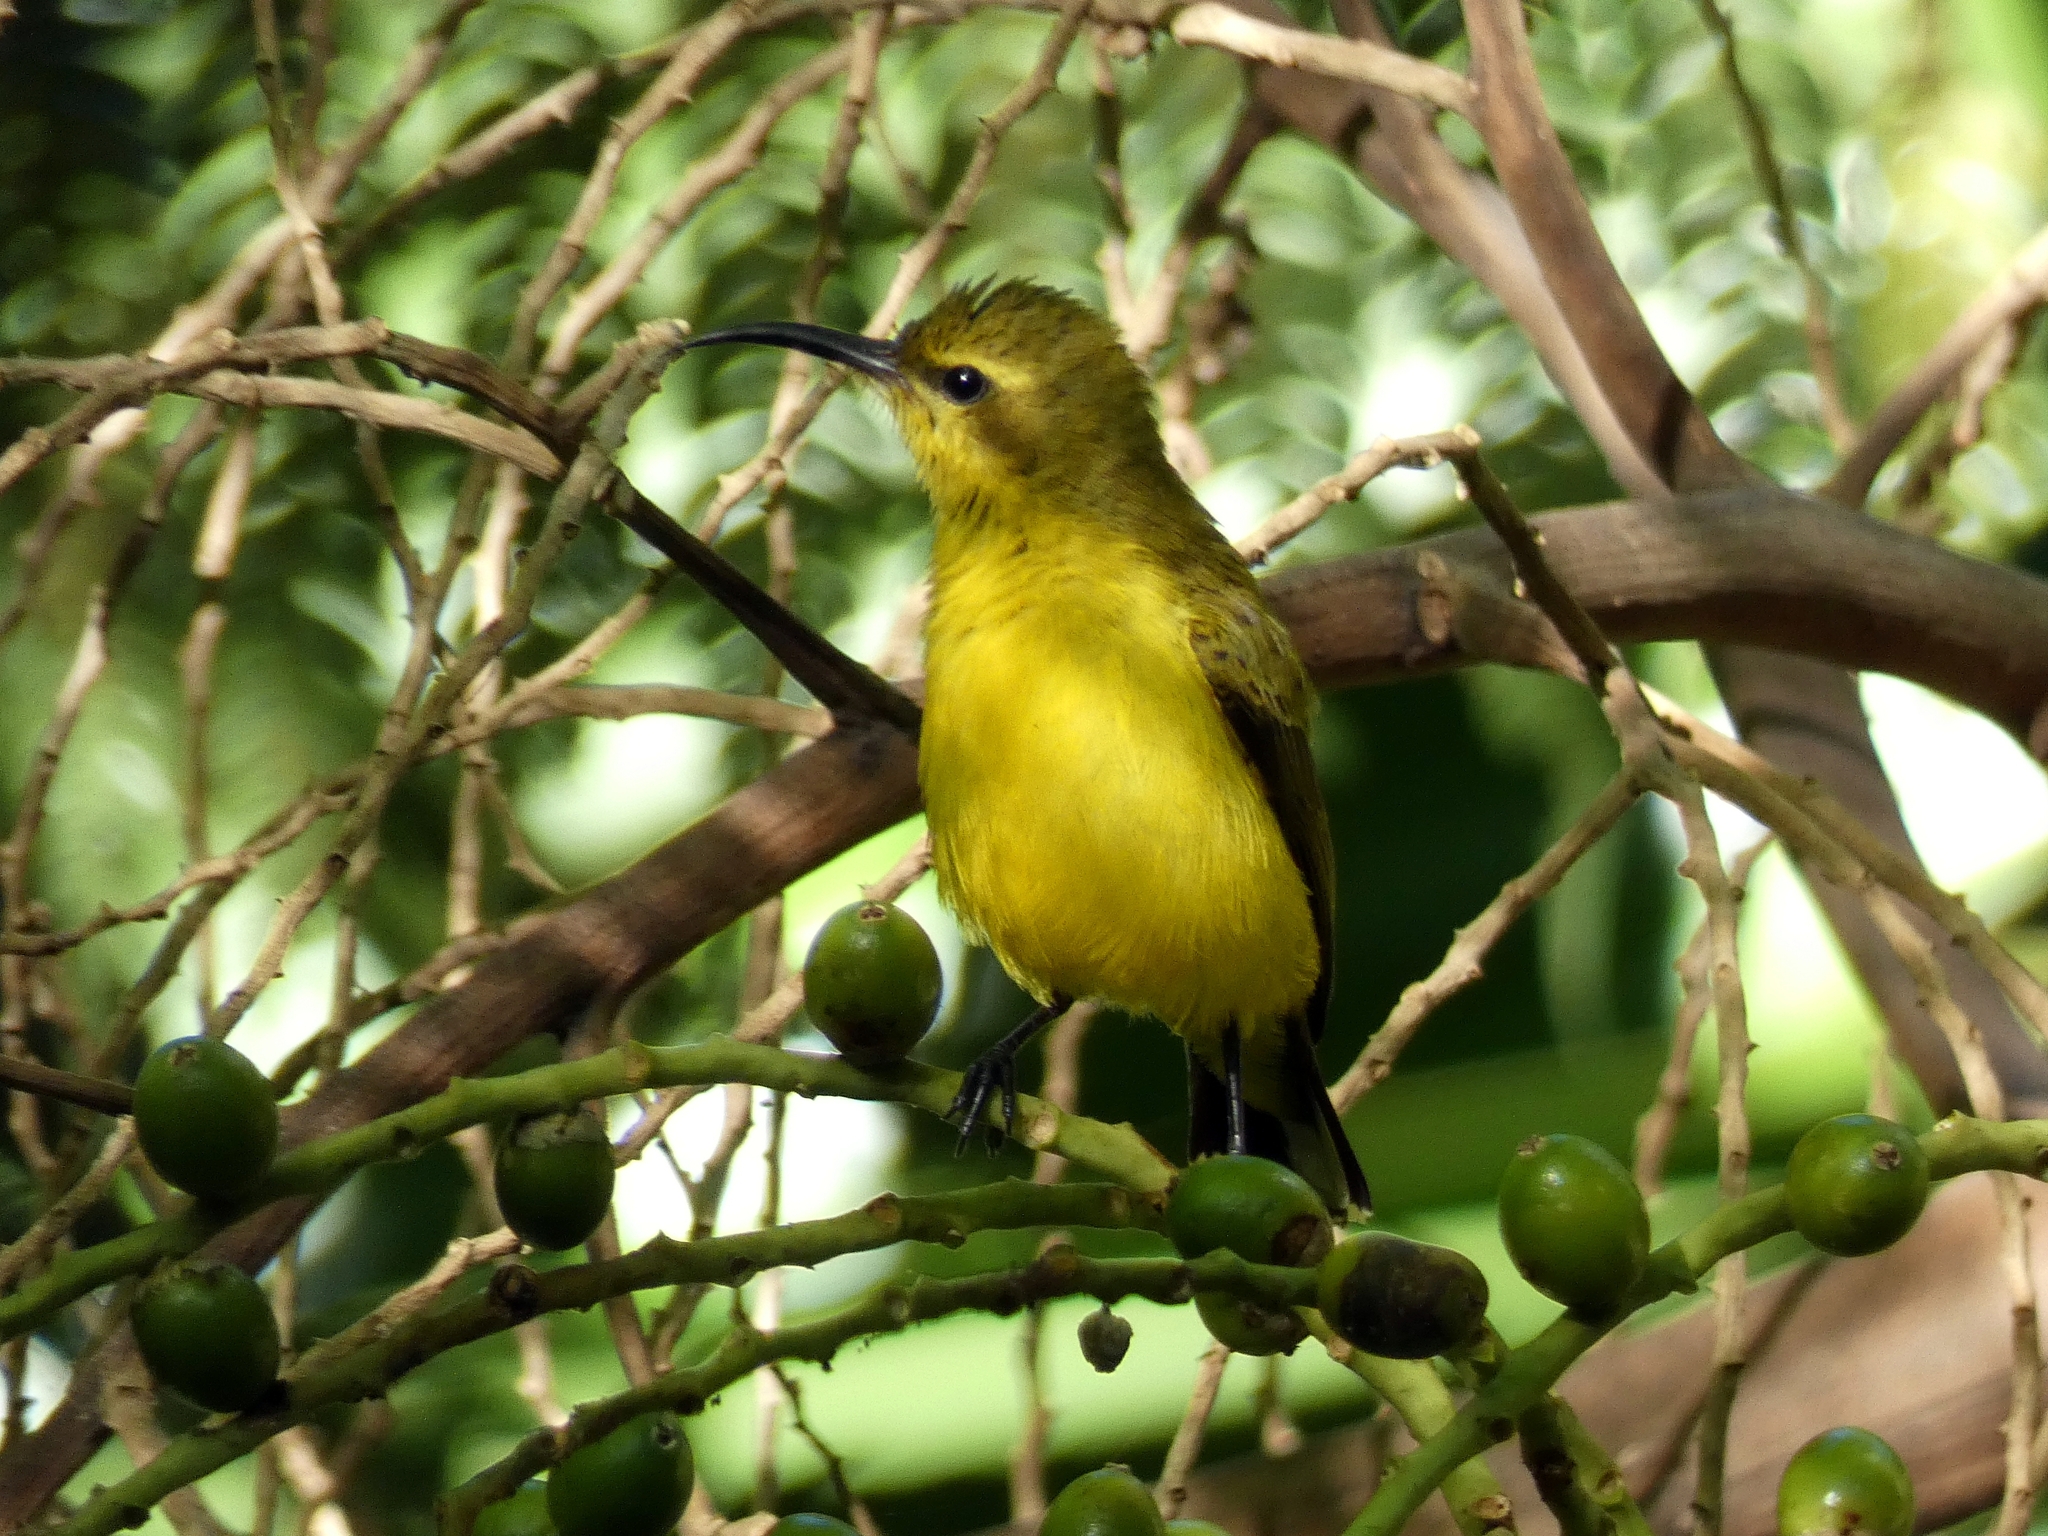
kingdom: Animalia
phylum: Chordata
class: Aves
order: Passeriformes
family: Nectariniidae
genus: Cinnyris
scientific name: Cinnyris
